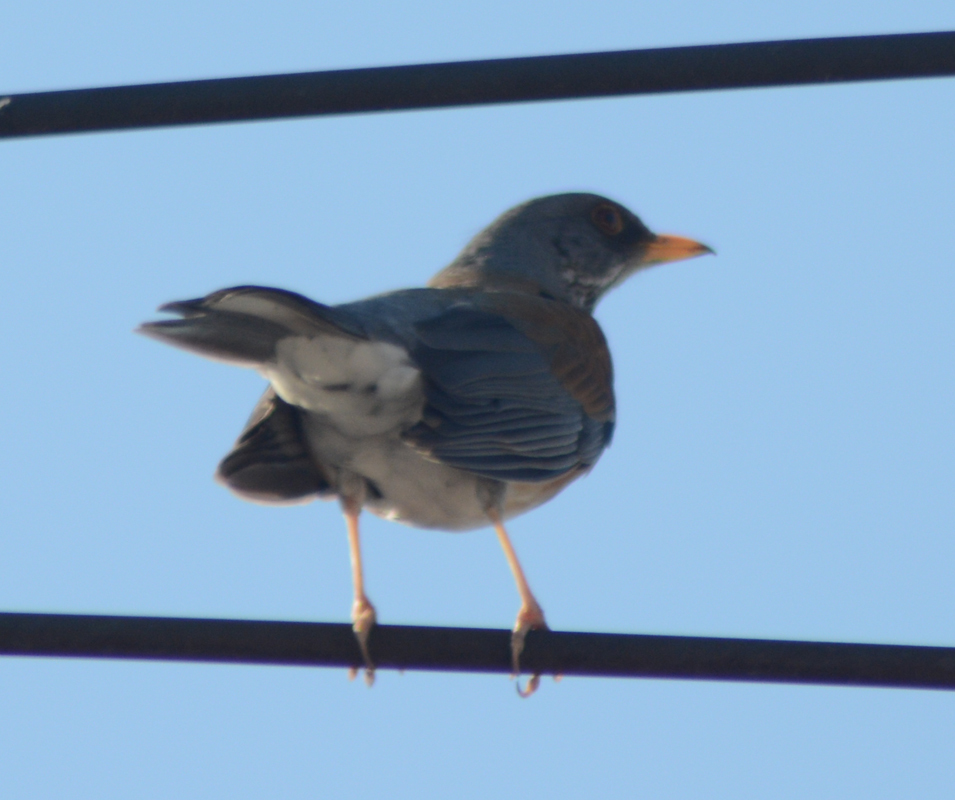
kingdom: Animalia
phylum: Chordata
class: Aves
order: Passeriformes
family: Turdidae
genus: Turdus
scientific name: Turdus rufopalliatus
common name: Rufous-backed robin
